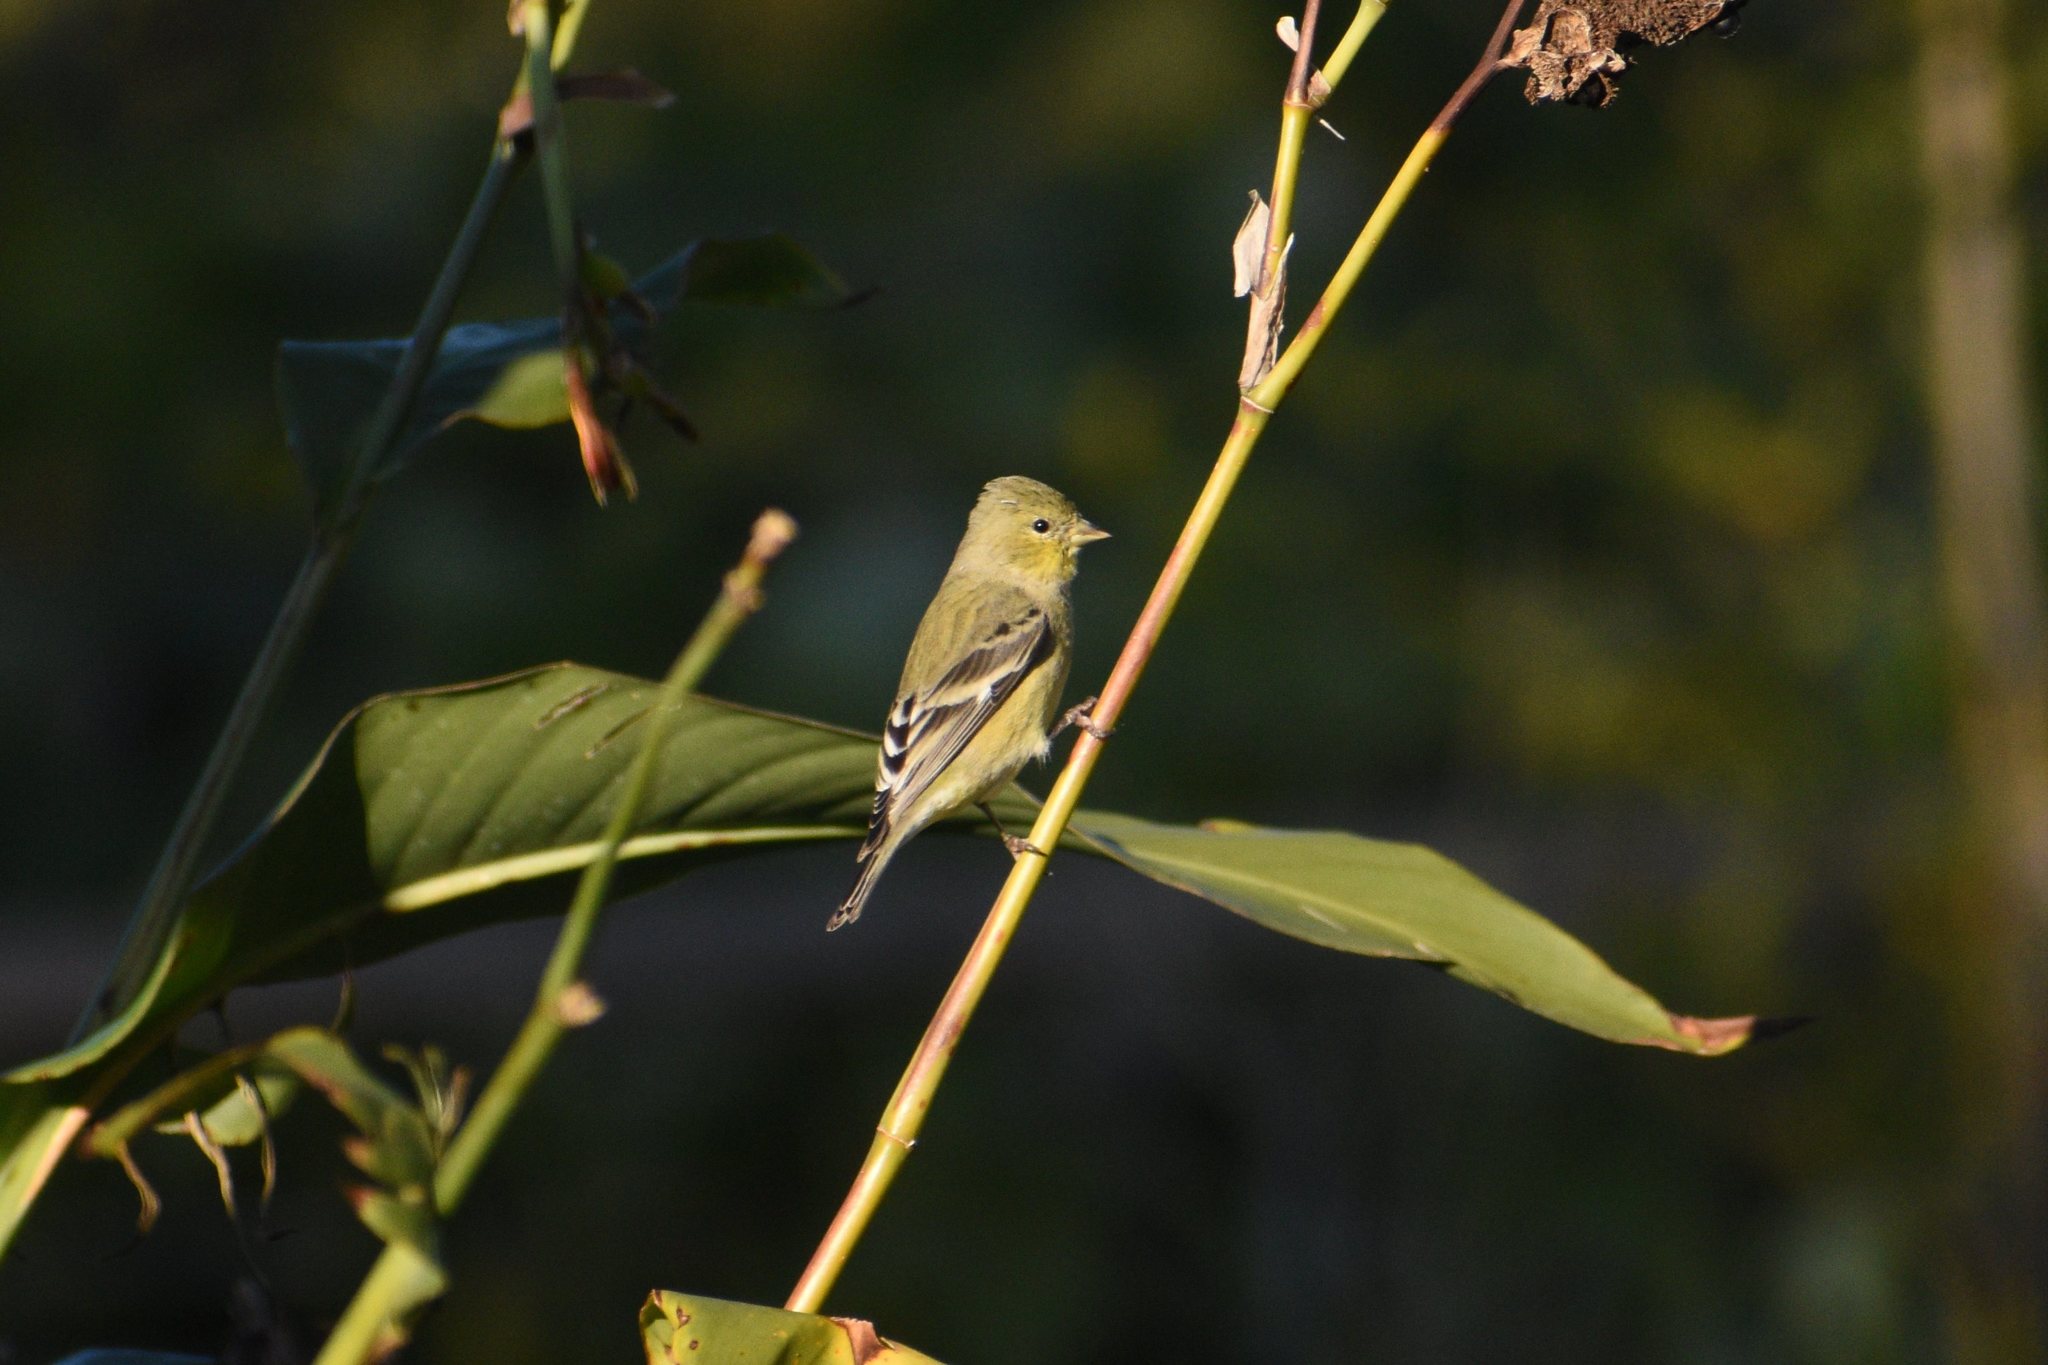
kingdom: Animalia
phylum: Chordata
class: Aves
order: Passeriformes
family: Fringillidae
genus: Spinus
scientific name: Spinus psaltria
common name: Lesser goldfinch
